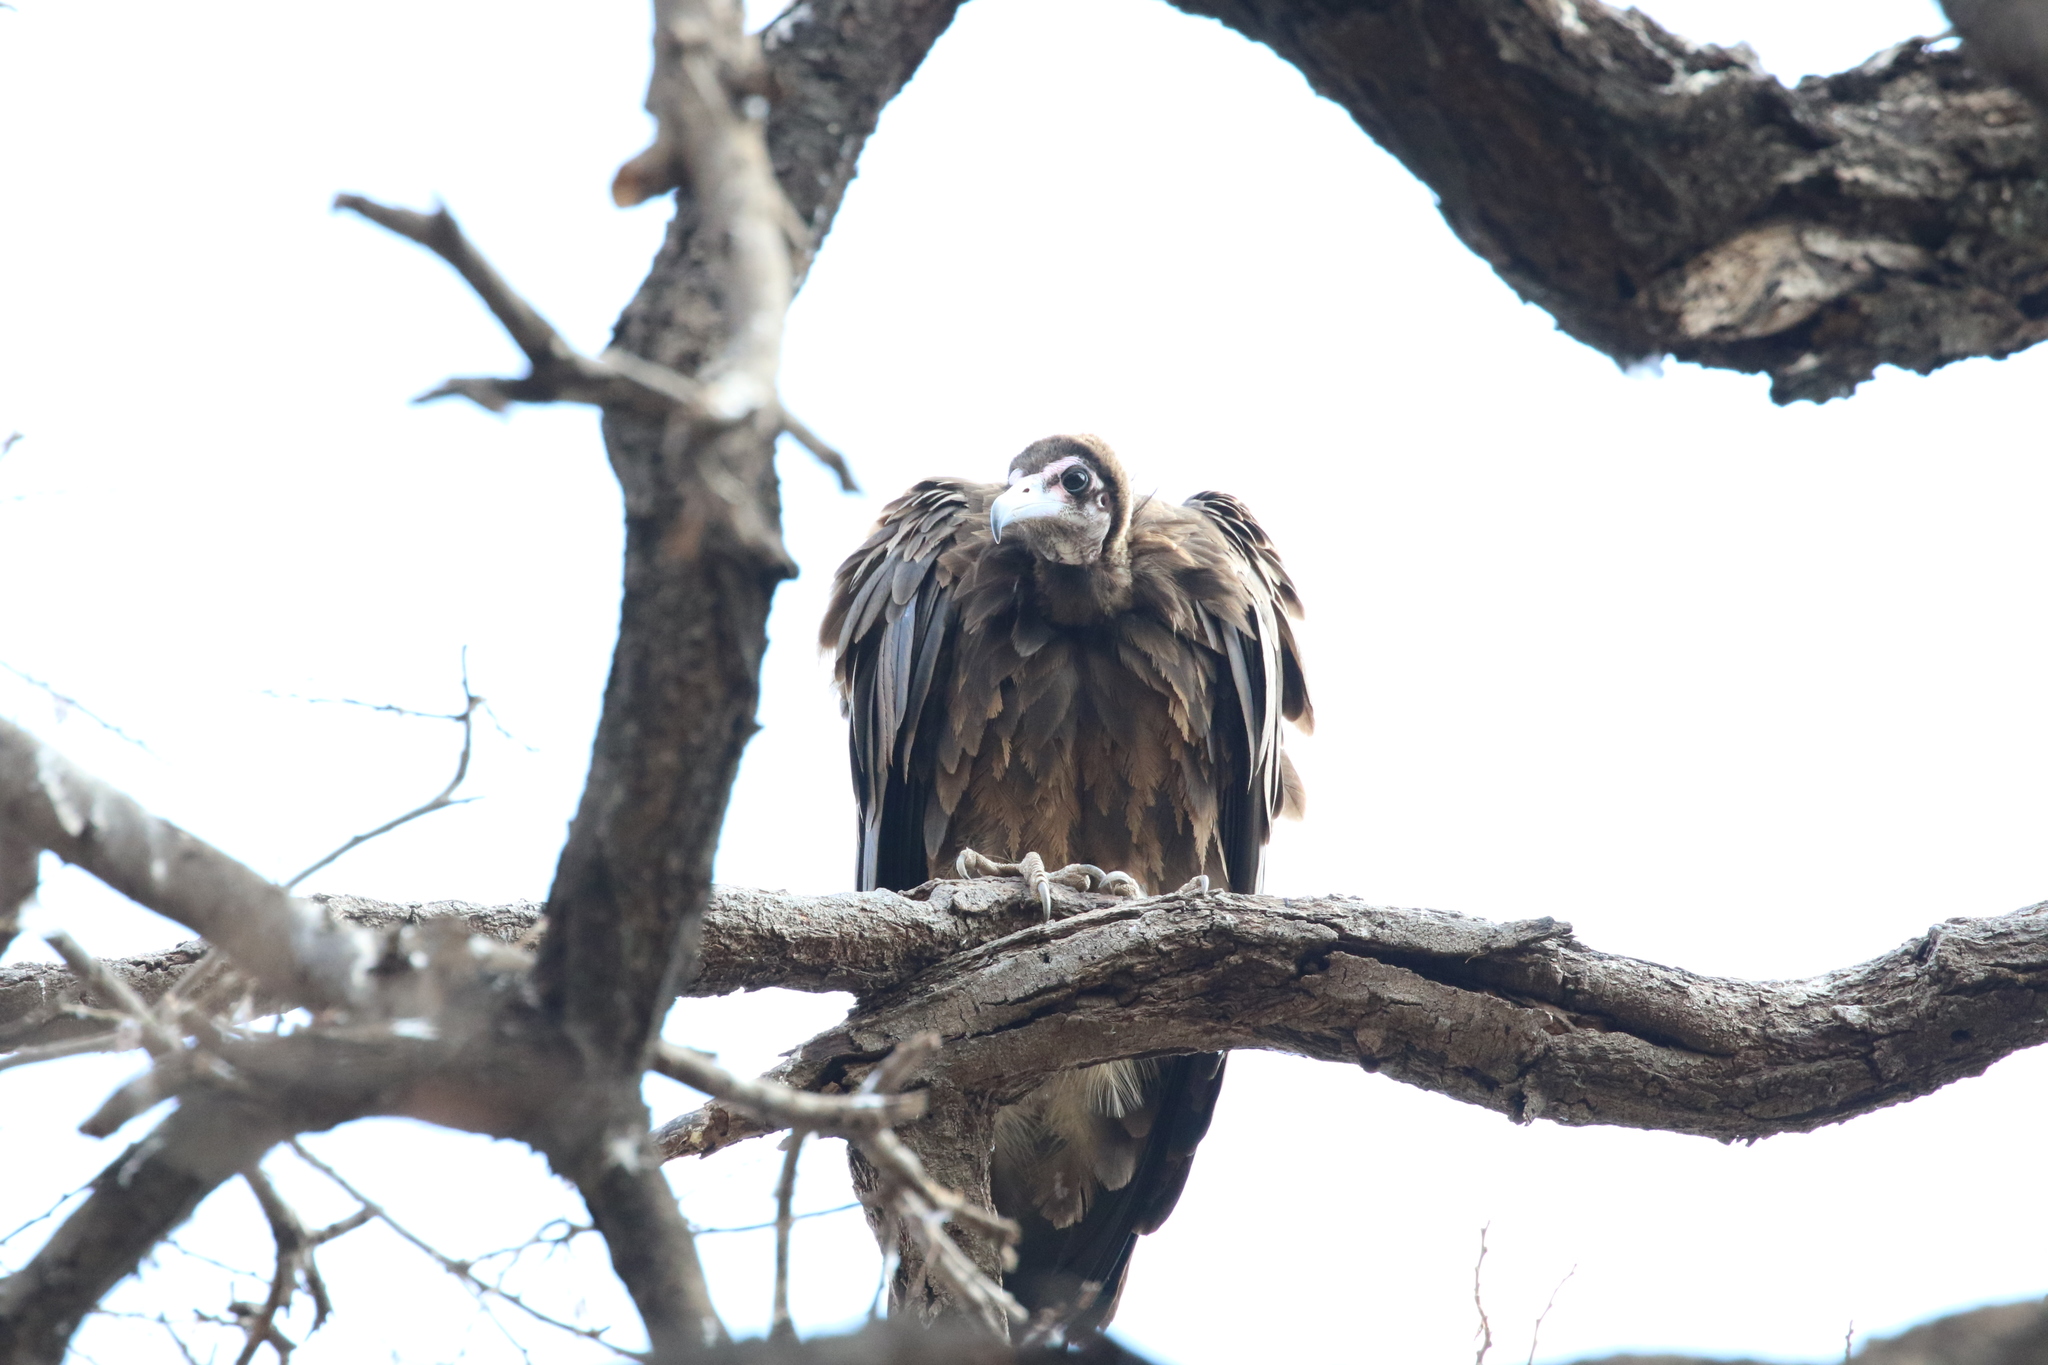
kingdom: Animalia
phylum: Chordata
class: Aves
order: Accipitriformes
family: Accipitridae
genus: Necrosyrtes
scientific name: Necrosyrtes monachus
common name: Hooded vulture
